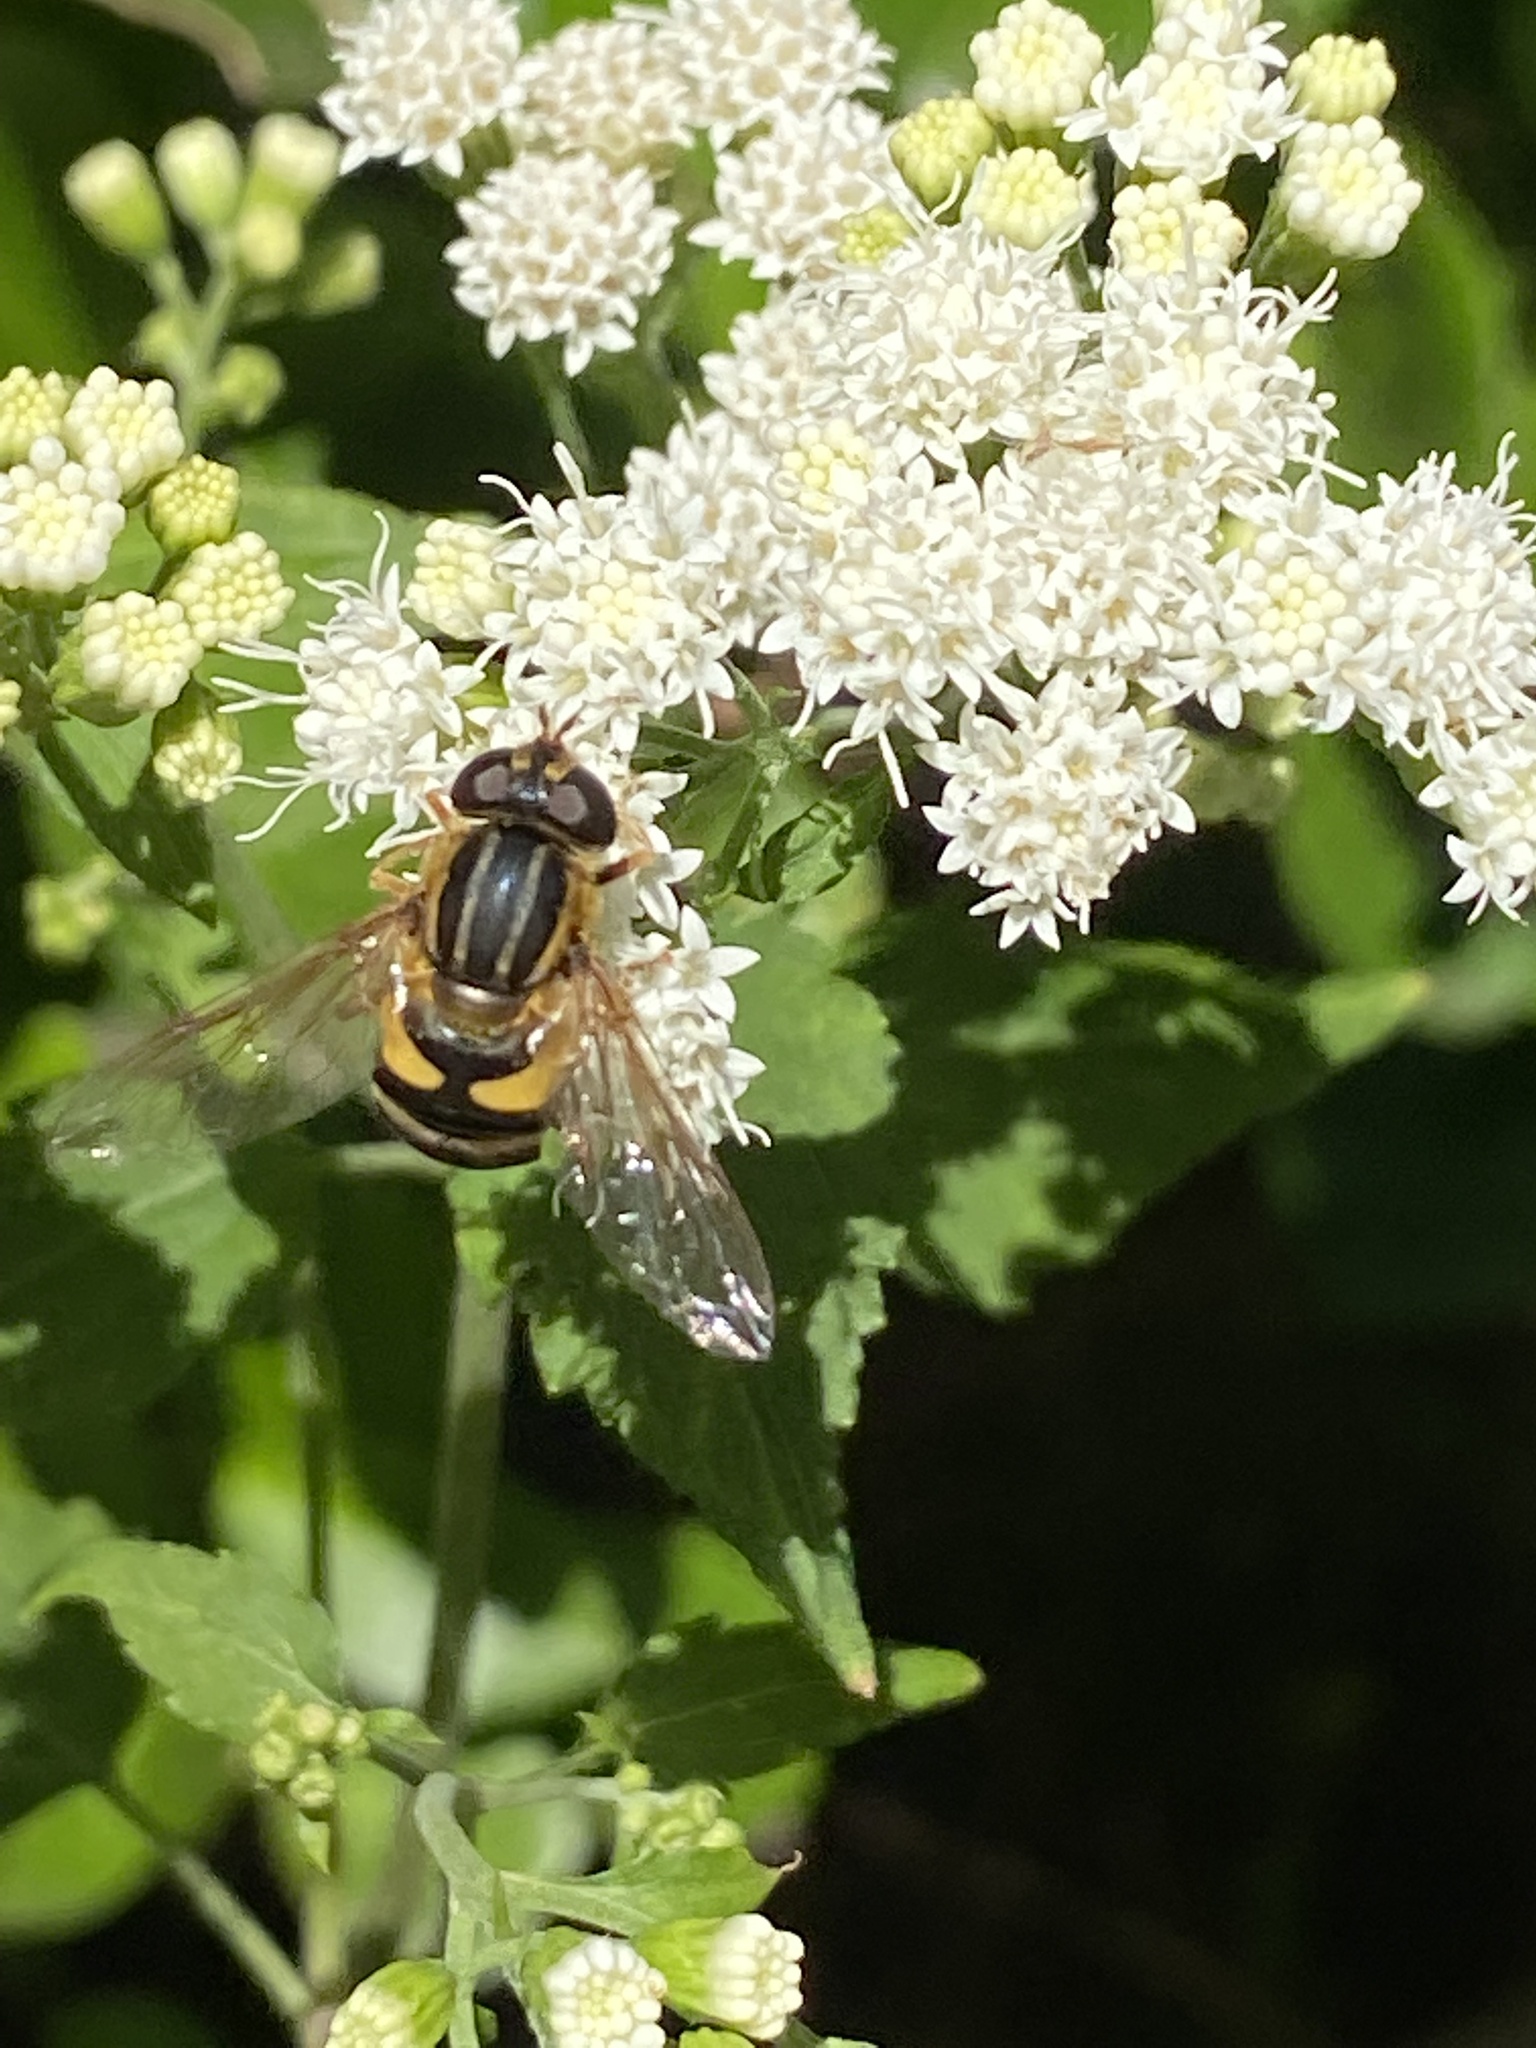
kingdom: Animalia
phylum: Arthropoda
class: Insecta
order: Diptera
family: Syrphidae
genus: Helophilus
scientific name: Helophilus fasciatus
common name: Narrow-headed marsh fly
